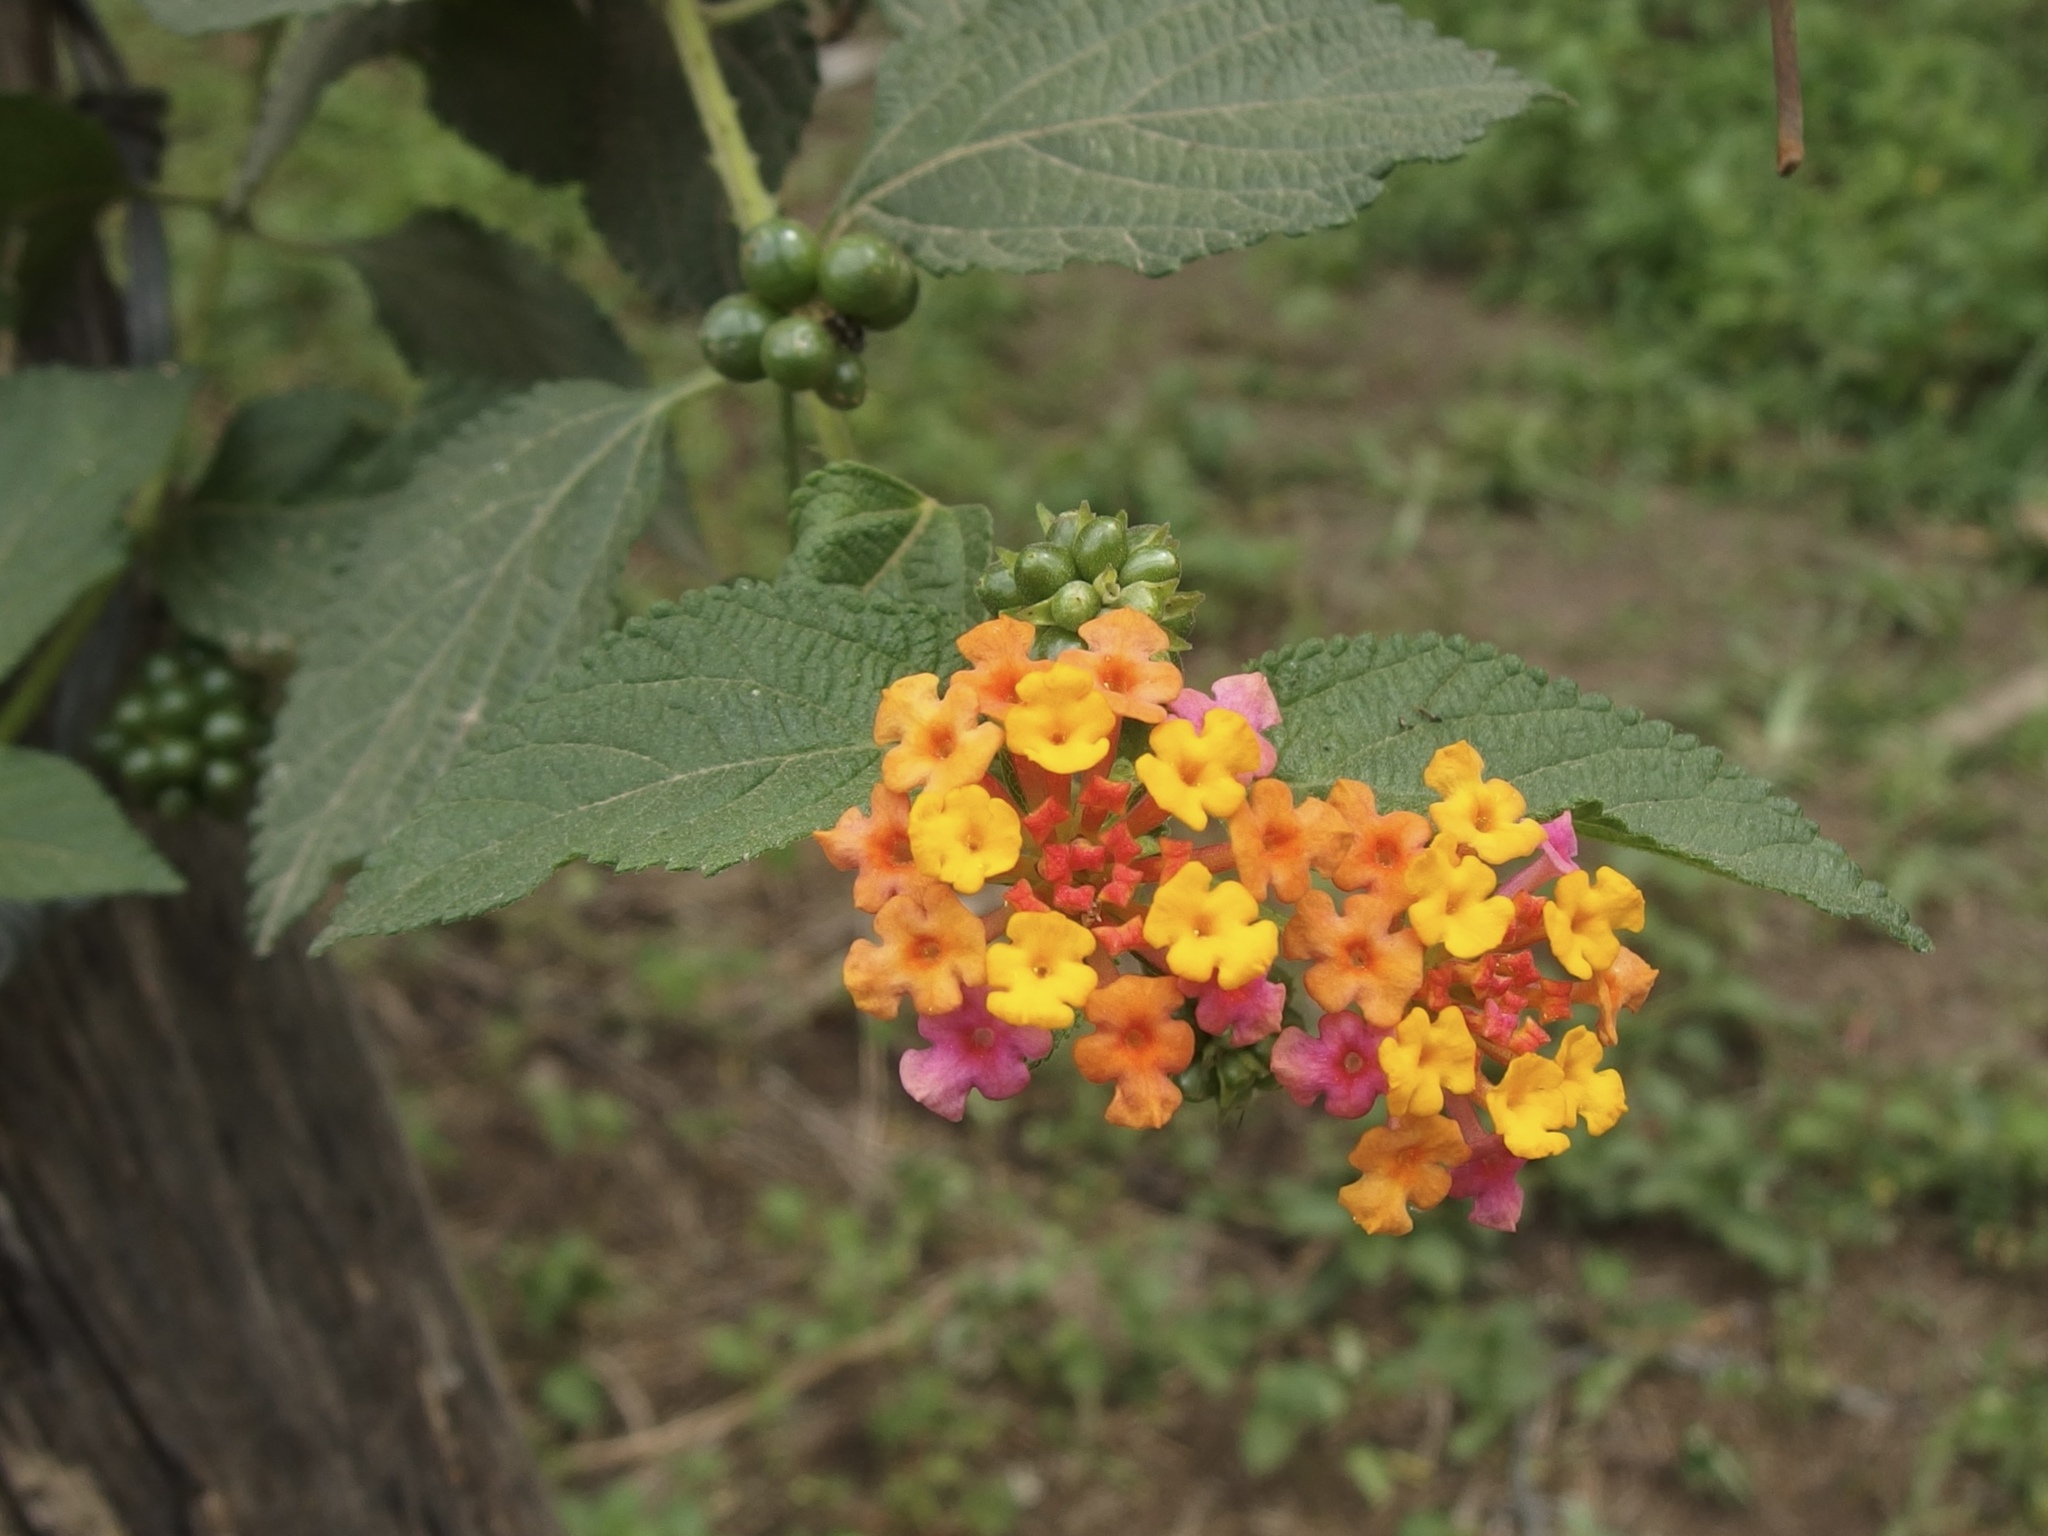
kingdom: Plantae
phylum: Tracheophyta
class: Magnoliopsida
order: Lamiales
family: Verbenaceae
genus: Lantana
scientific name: Lantana camara
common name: Lantana
